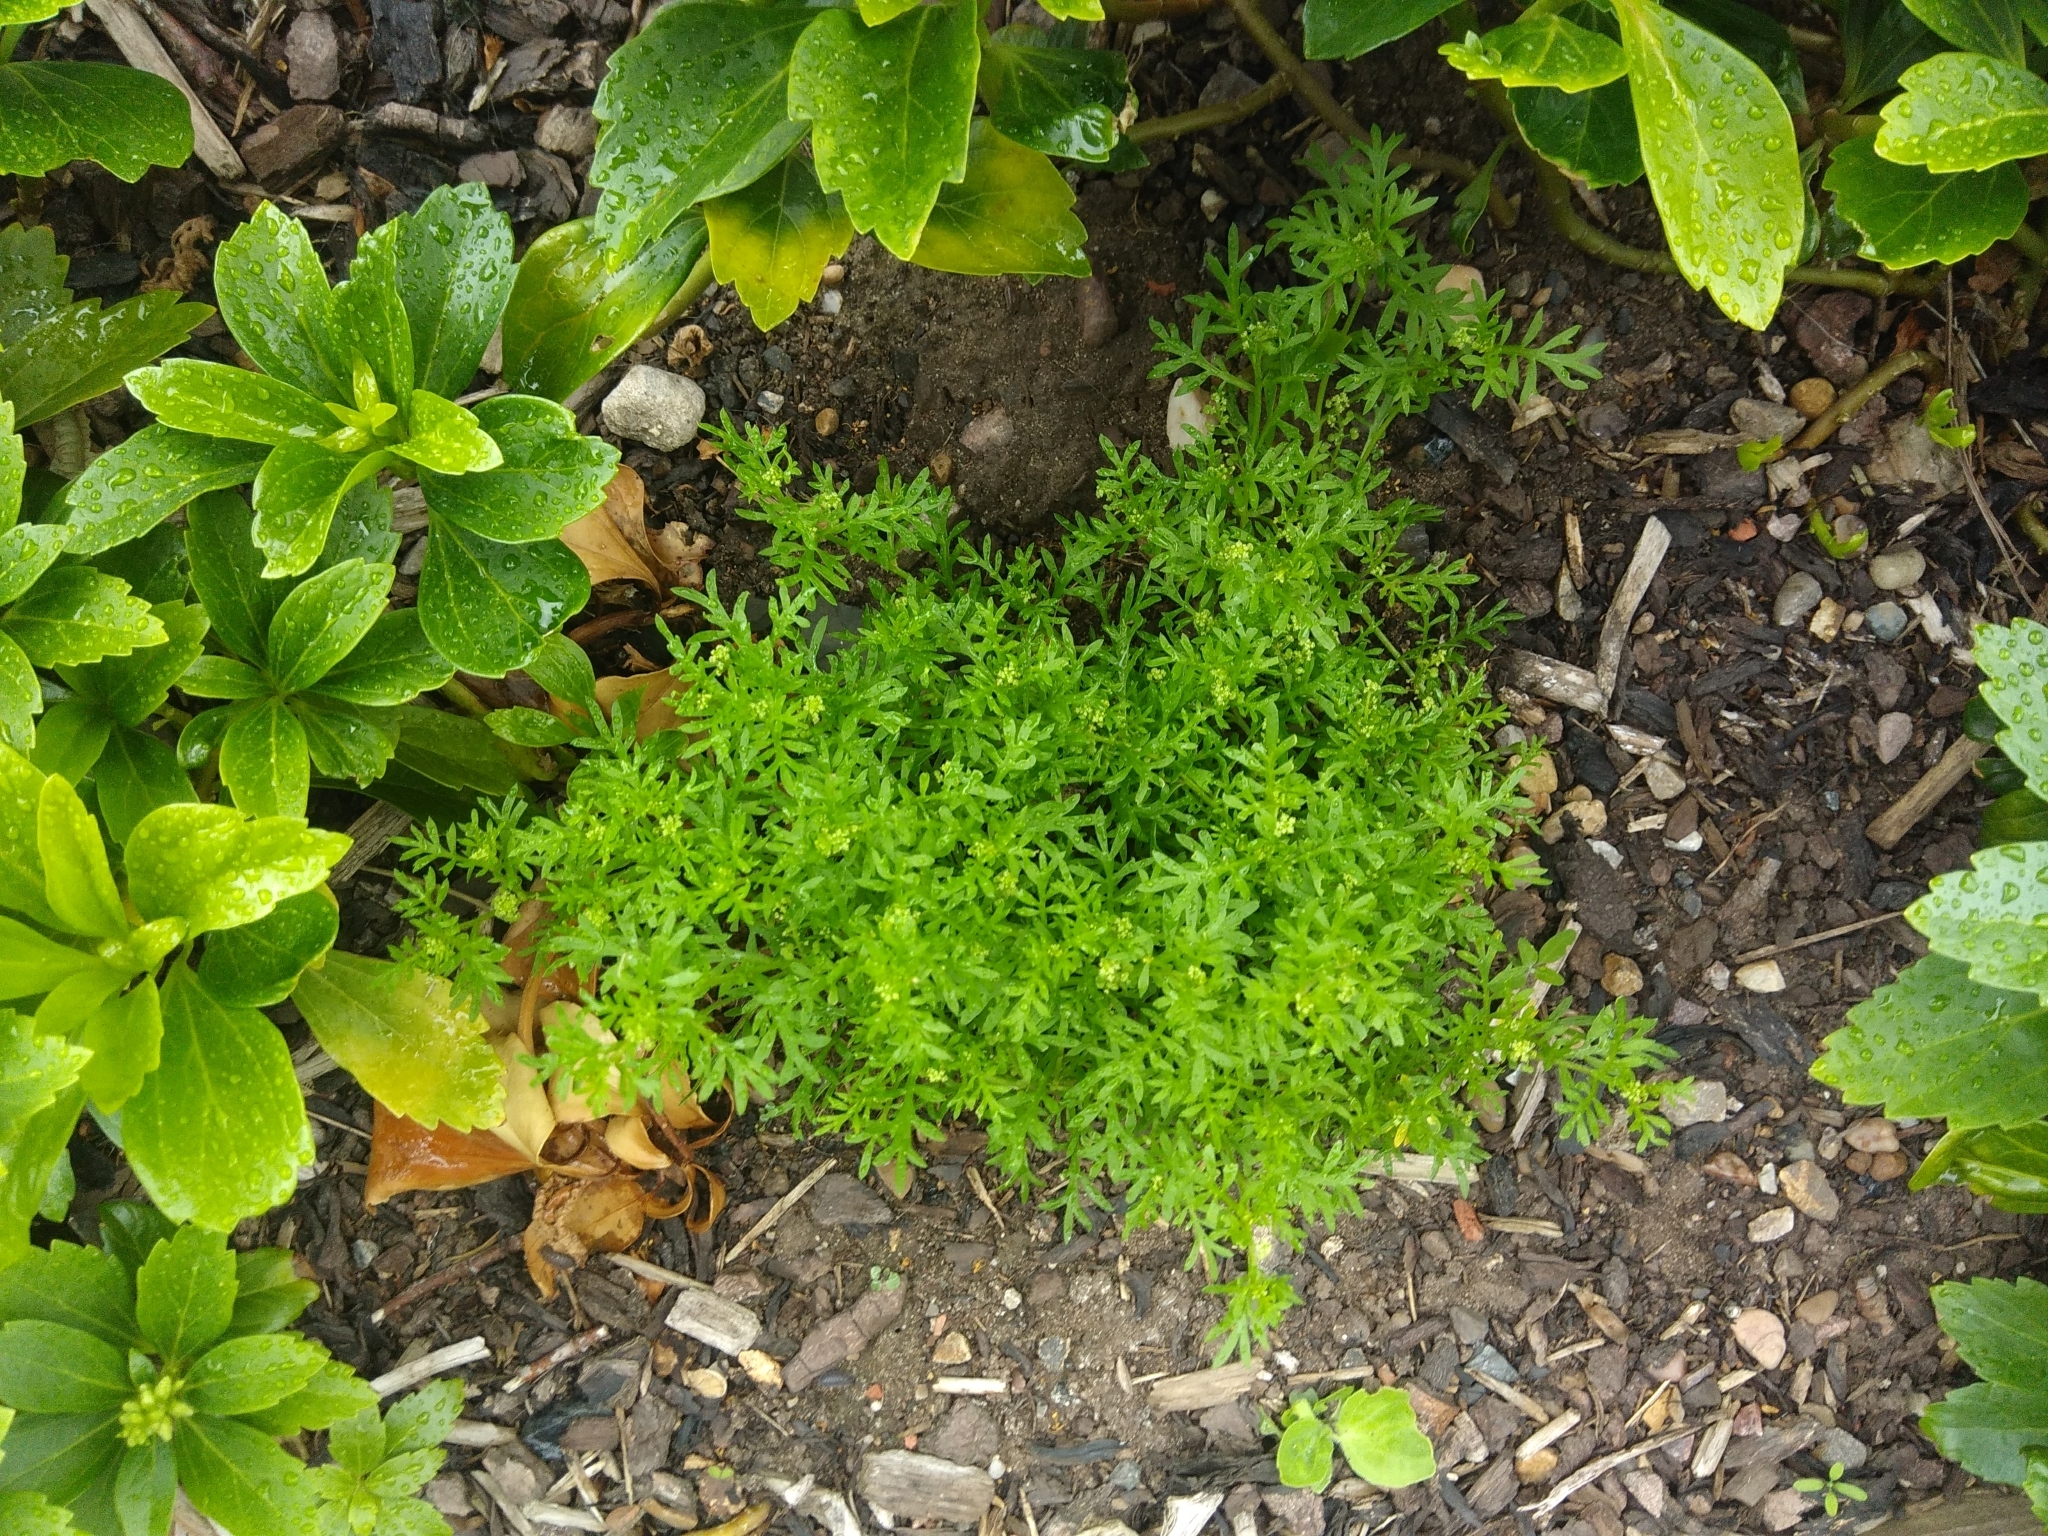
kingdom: Plantae
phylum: Tracheophyta
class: Magnoliopsida
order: Brassicales
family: Brassicaceae
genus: Lepidium
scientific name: Lepidium didymum
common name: Lesser swinecress
